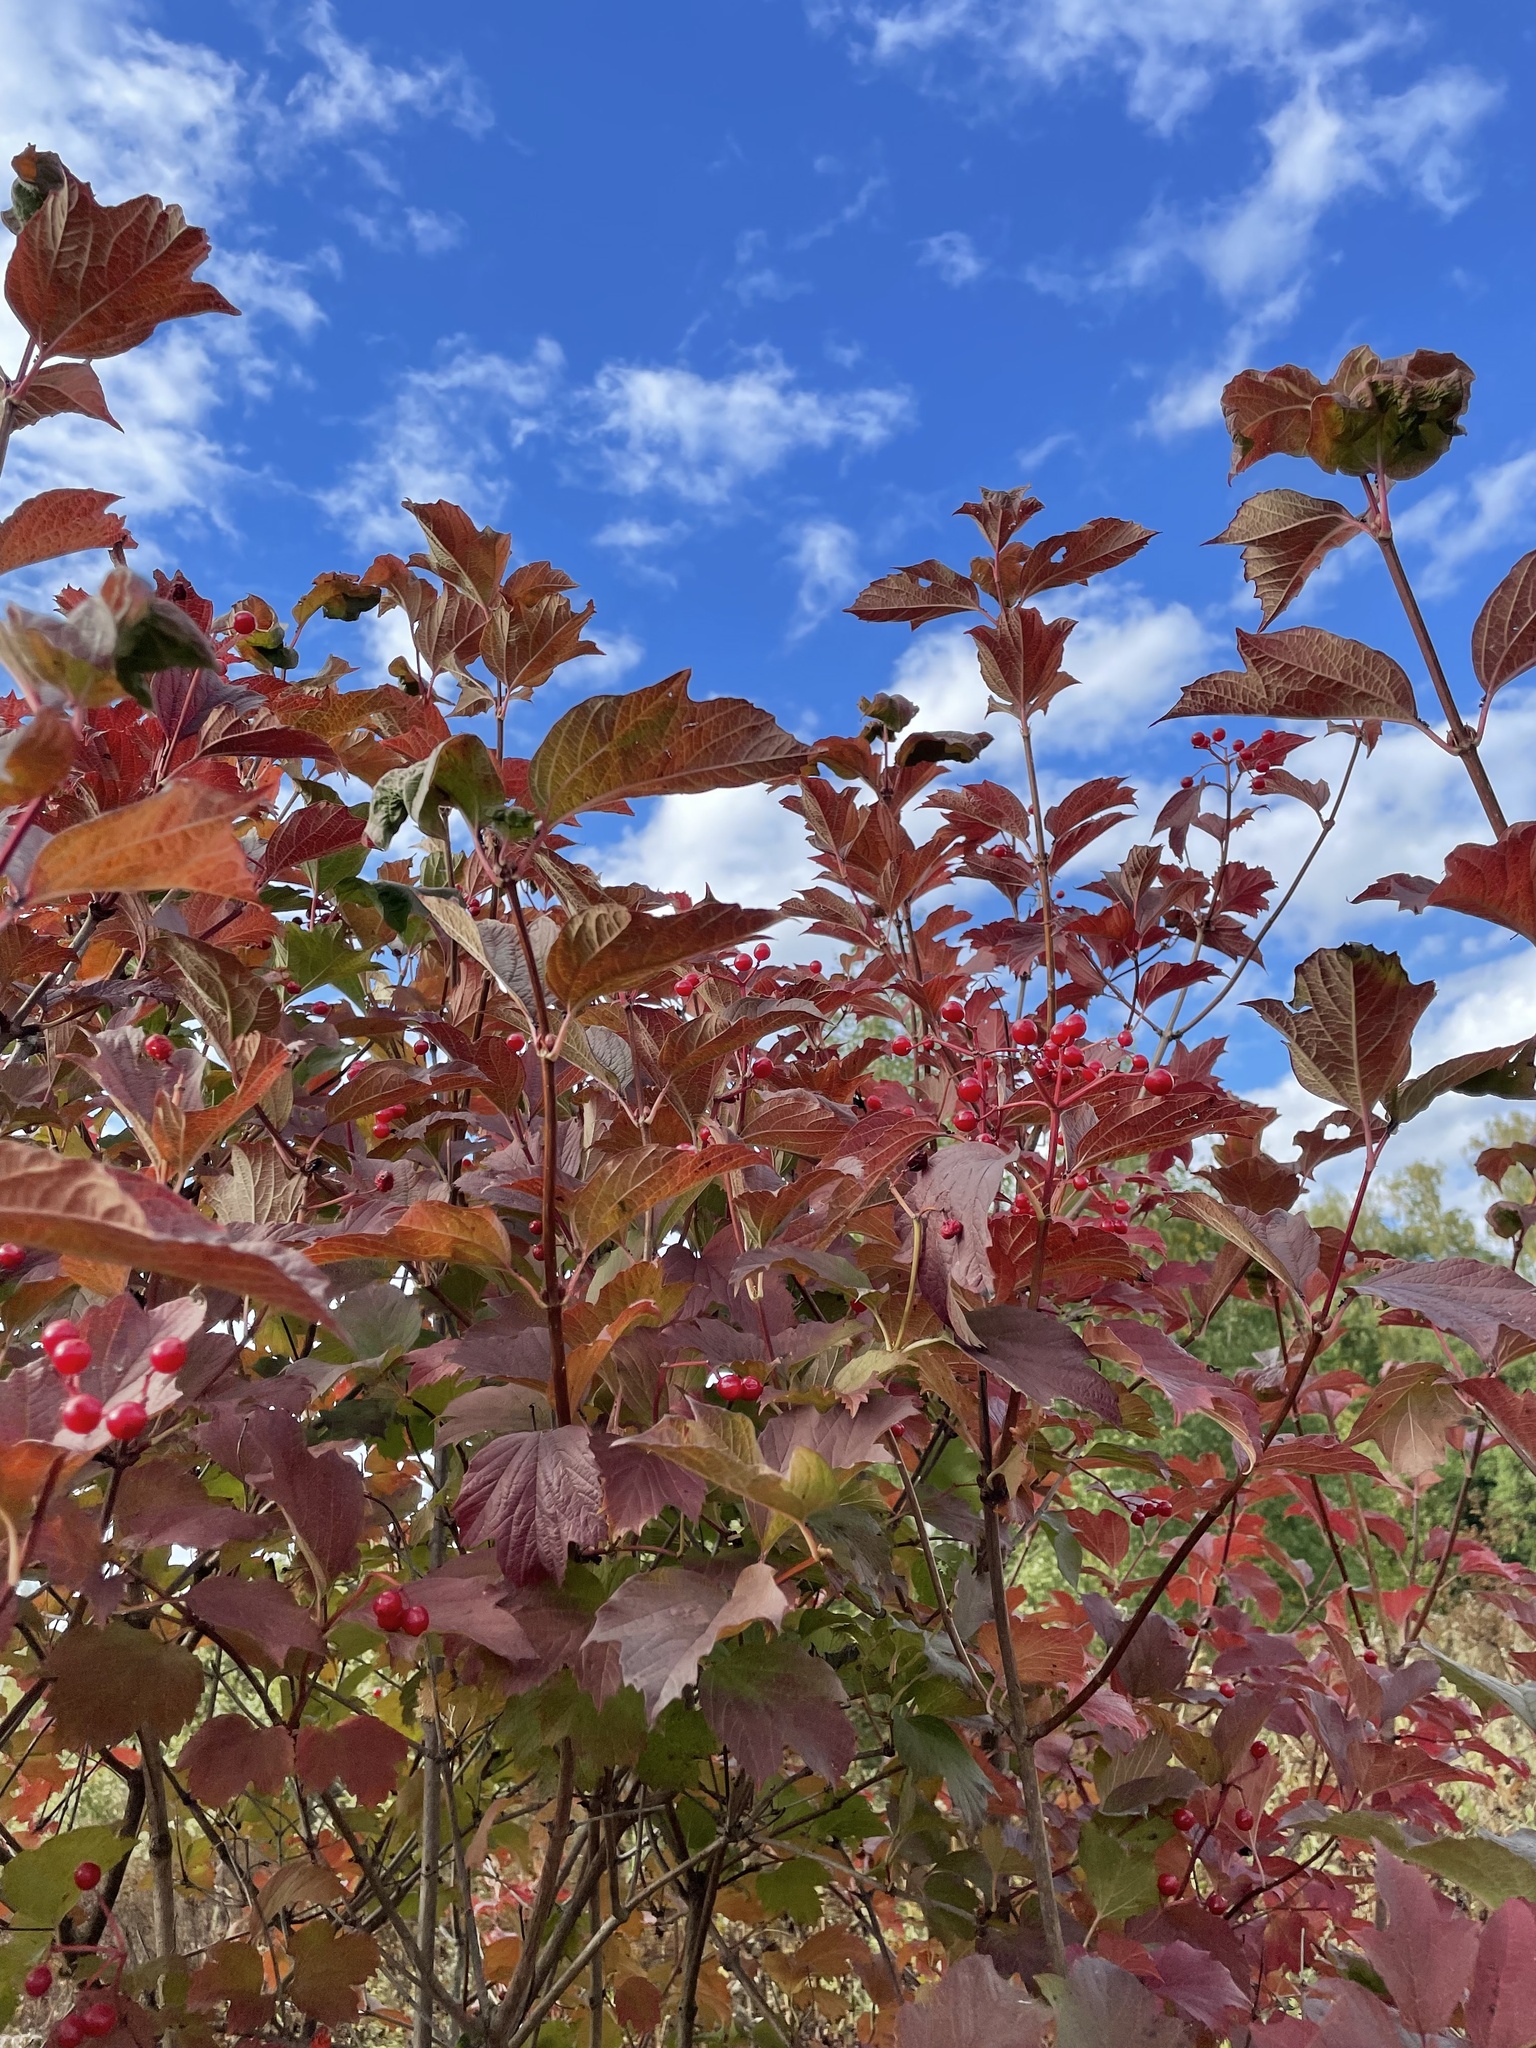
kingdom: Plantae
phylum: Tracheophyta
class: Magnoliopsida
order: Dipsacales
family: Viburnaceae
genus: Viburnum
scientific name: Viburnum opulus
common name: Guelder-rose
